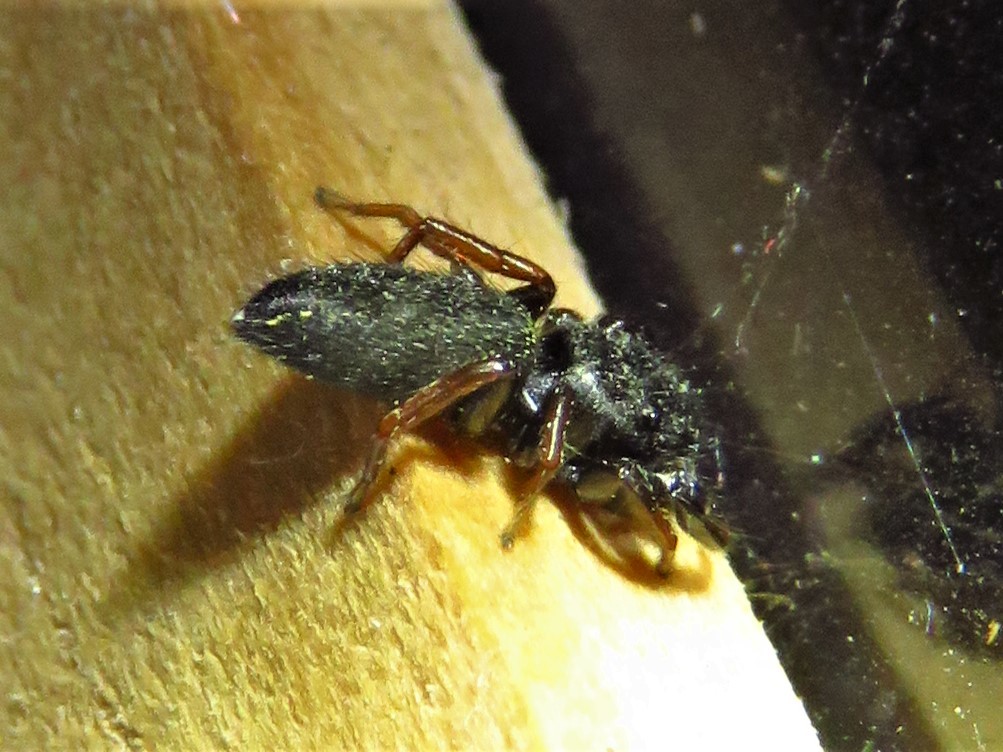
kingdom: Animalia
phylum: Arthropoda
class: Arachnida
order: Araneae
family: Salticidae
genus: Metacyrba
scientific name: Metacyrba taeniola
